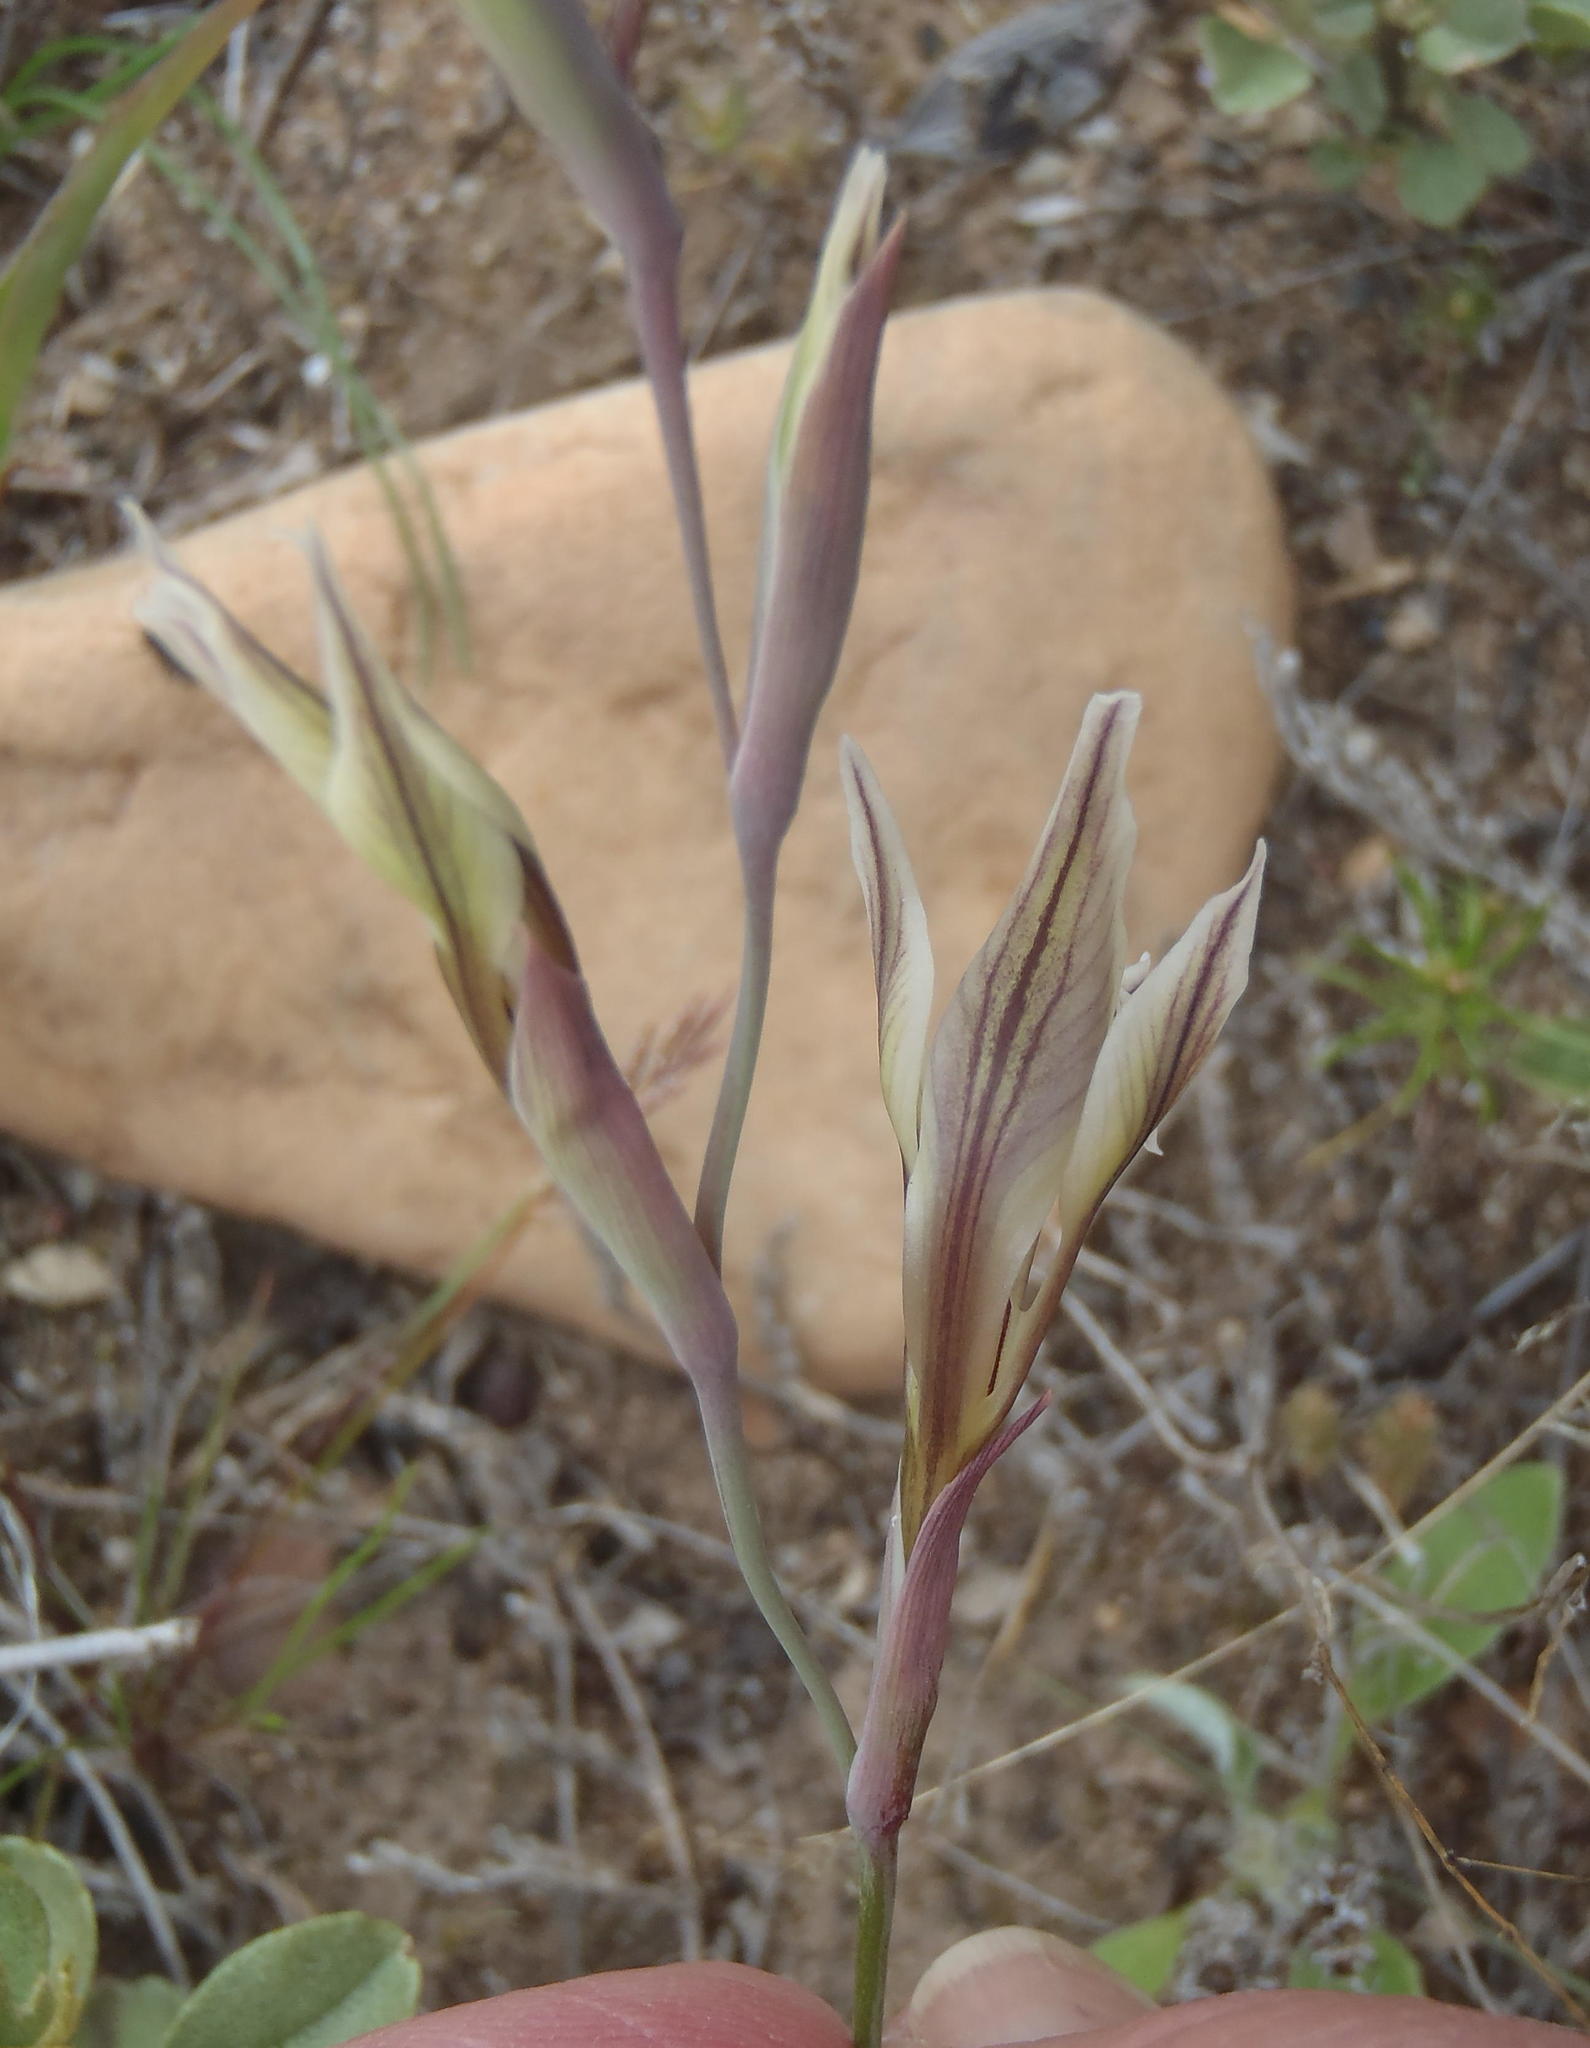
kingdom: Plantae
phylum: Tracheophyta
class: Liliopsida
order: Asparagales
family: Iridaceae
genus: Gladiolus
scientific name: Gladiolus permeabilis
